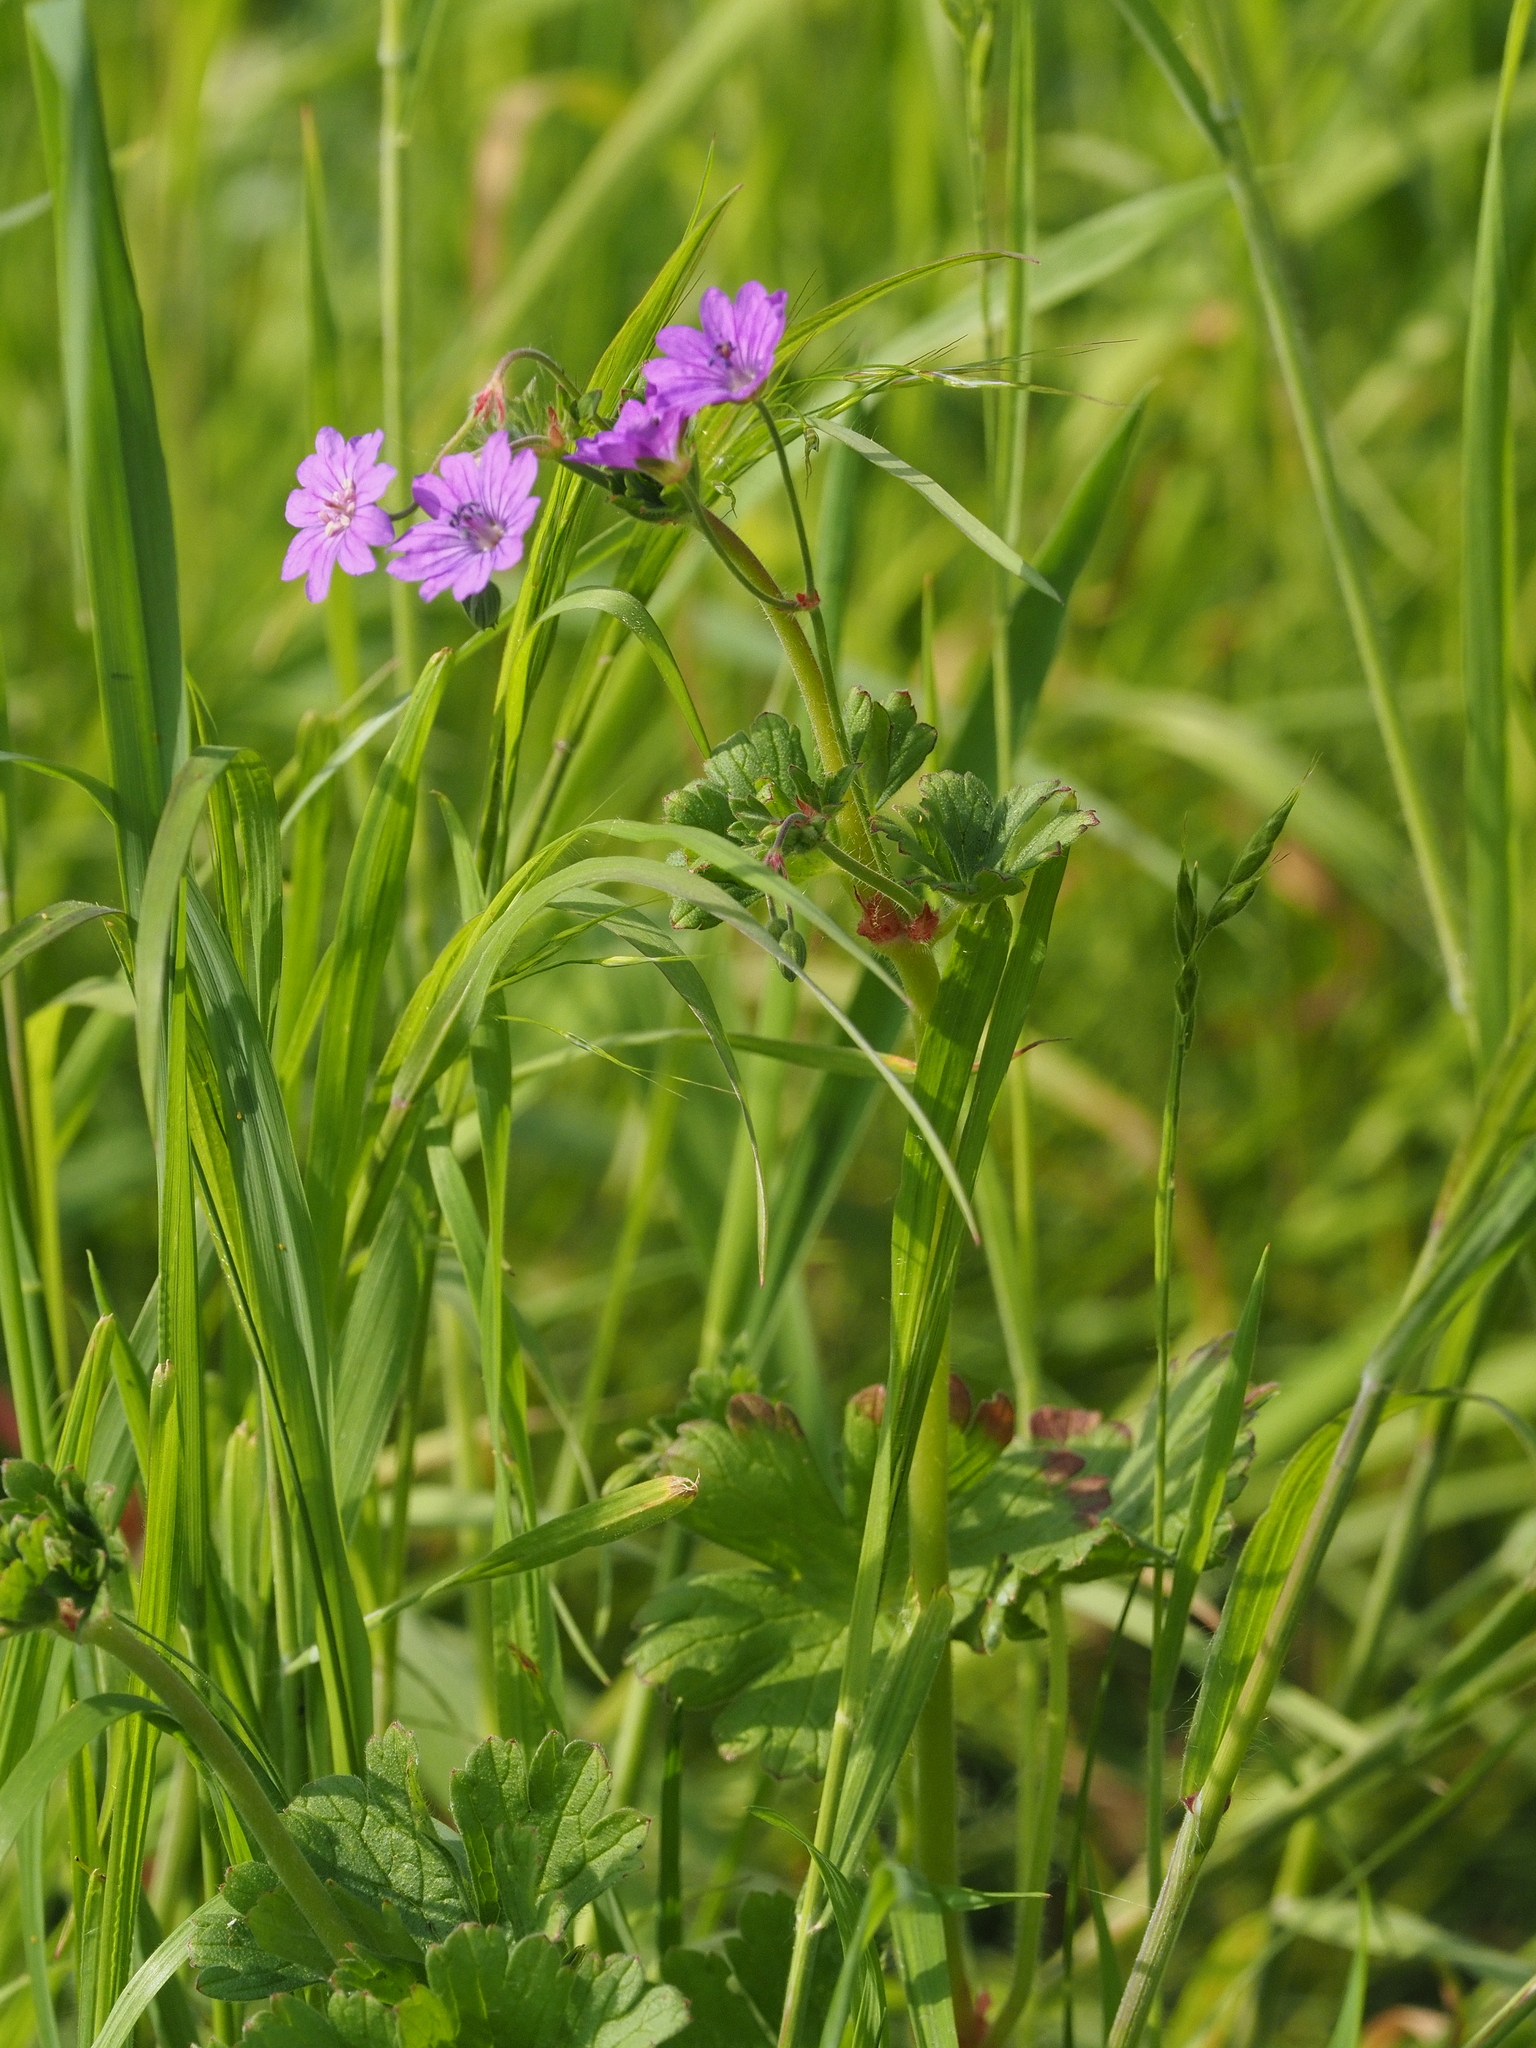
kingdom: Plantae
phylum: Tracheophyta
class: Magnoliopsida
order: Geraniales
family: Geraniaceae
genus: Geranium
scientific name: Geranium pyrenaicum
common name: Hedgerow crane's-bill
